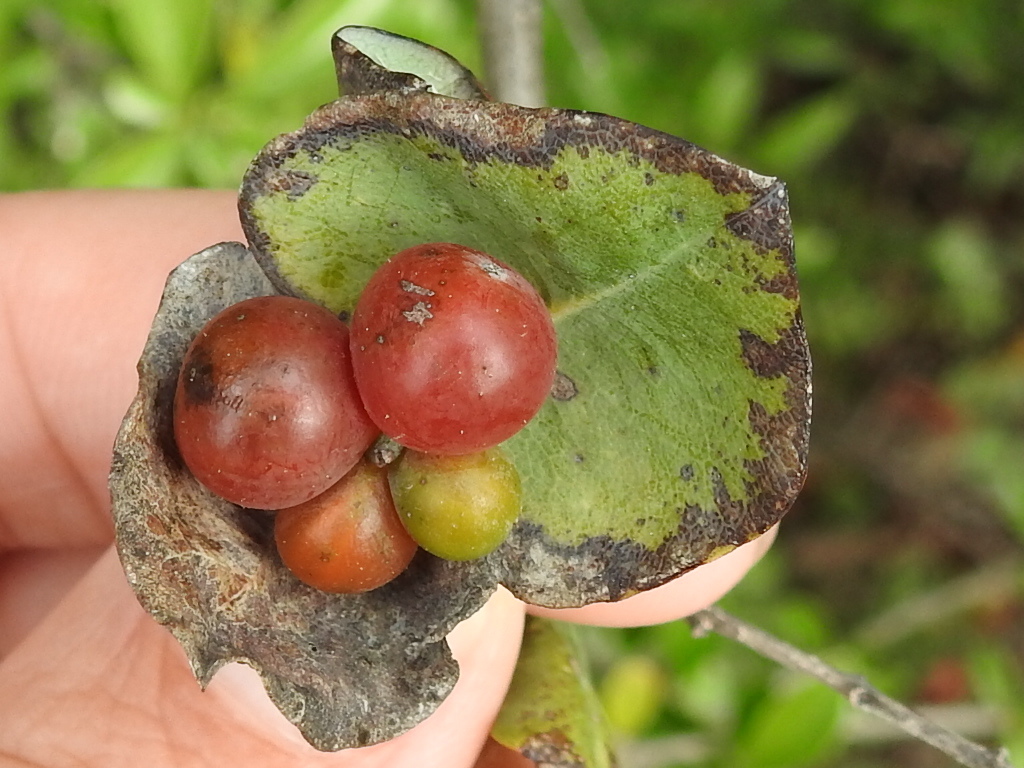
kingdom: Plantae
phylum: Tracheophyta
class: Magnoliopsida
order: Dipsacales
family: Caprifoliaceae
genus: Lonicera
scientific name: Lonicera albiflora
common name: White honeysuckle
